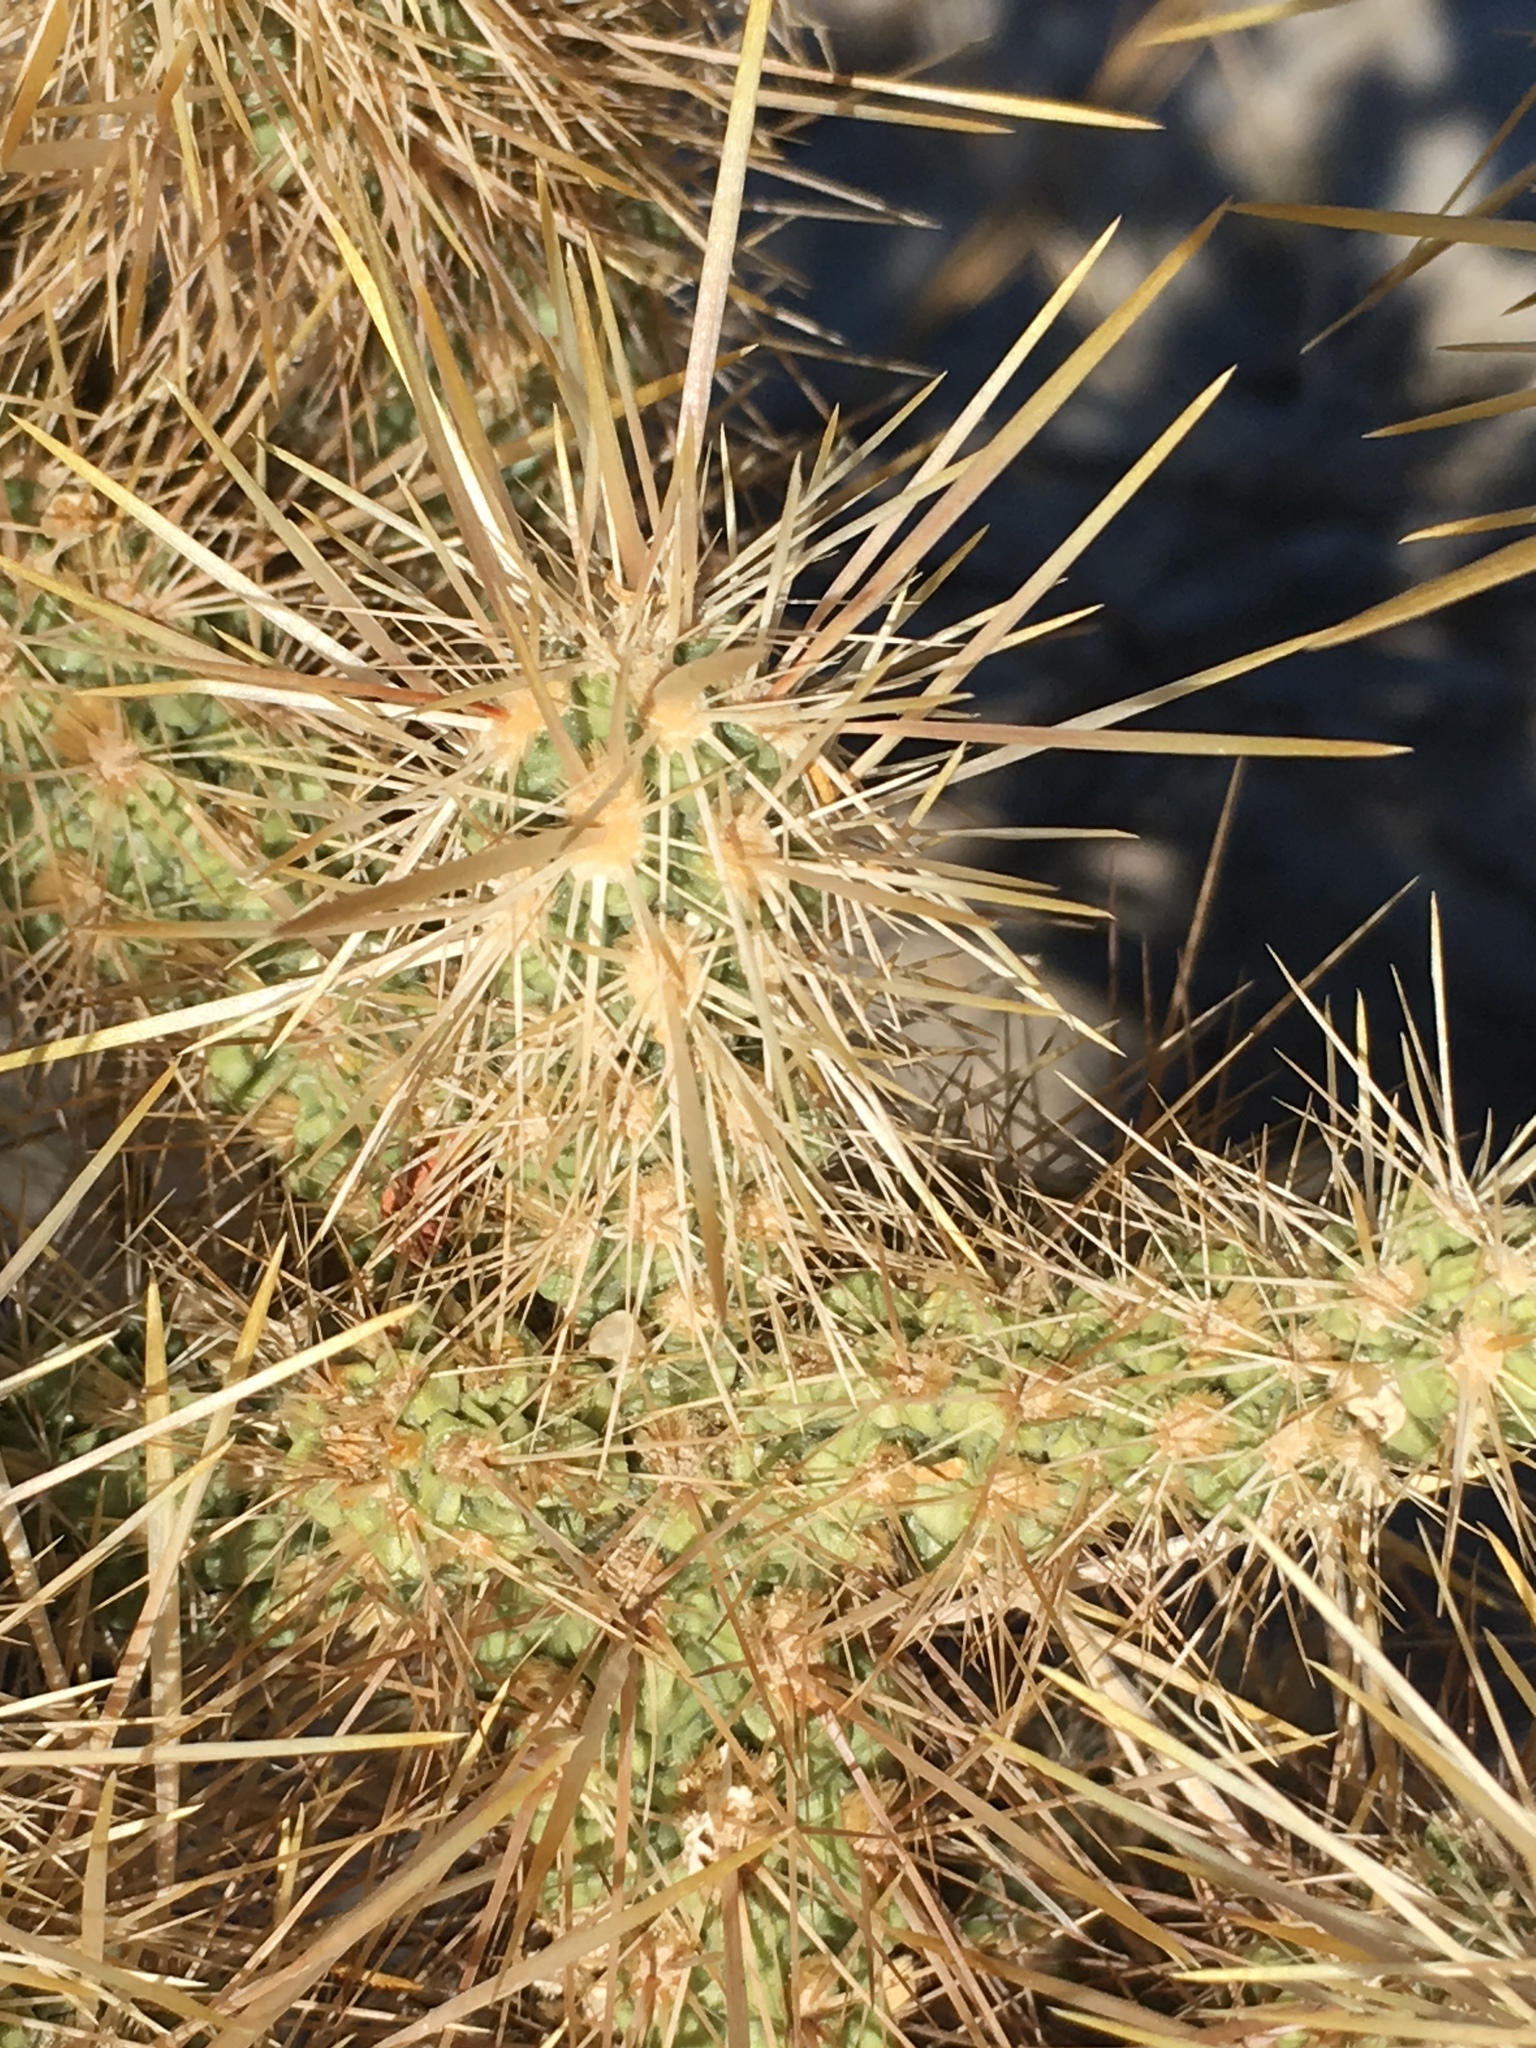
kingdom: Plantae
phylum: Tracheophyta
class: Magnoliopsida
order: Caryophyllales
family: Cactaceae
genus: Cylindropuntia
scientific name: Cylindropuntia echinocarpa
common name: Ground cholla
